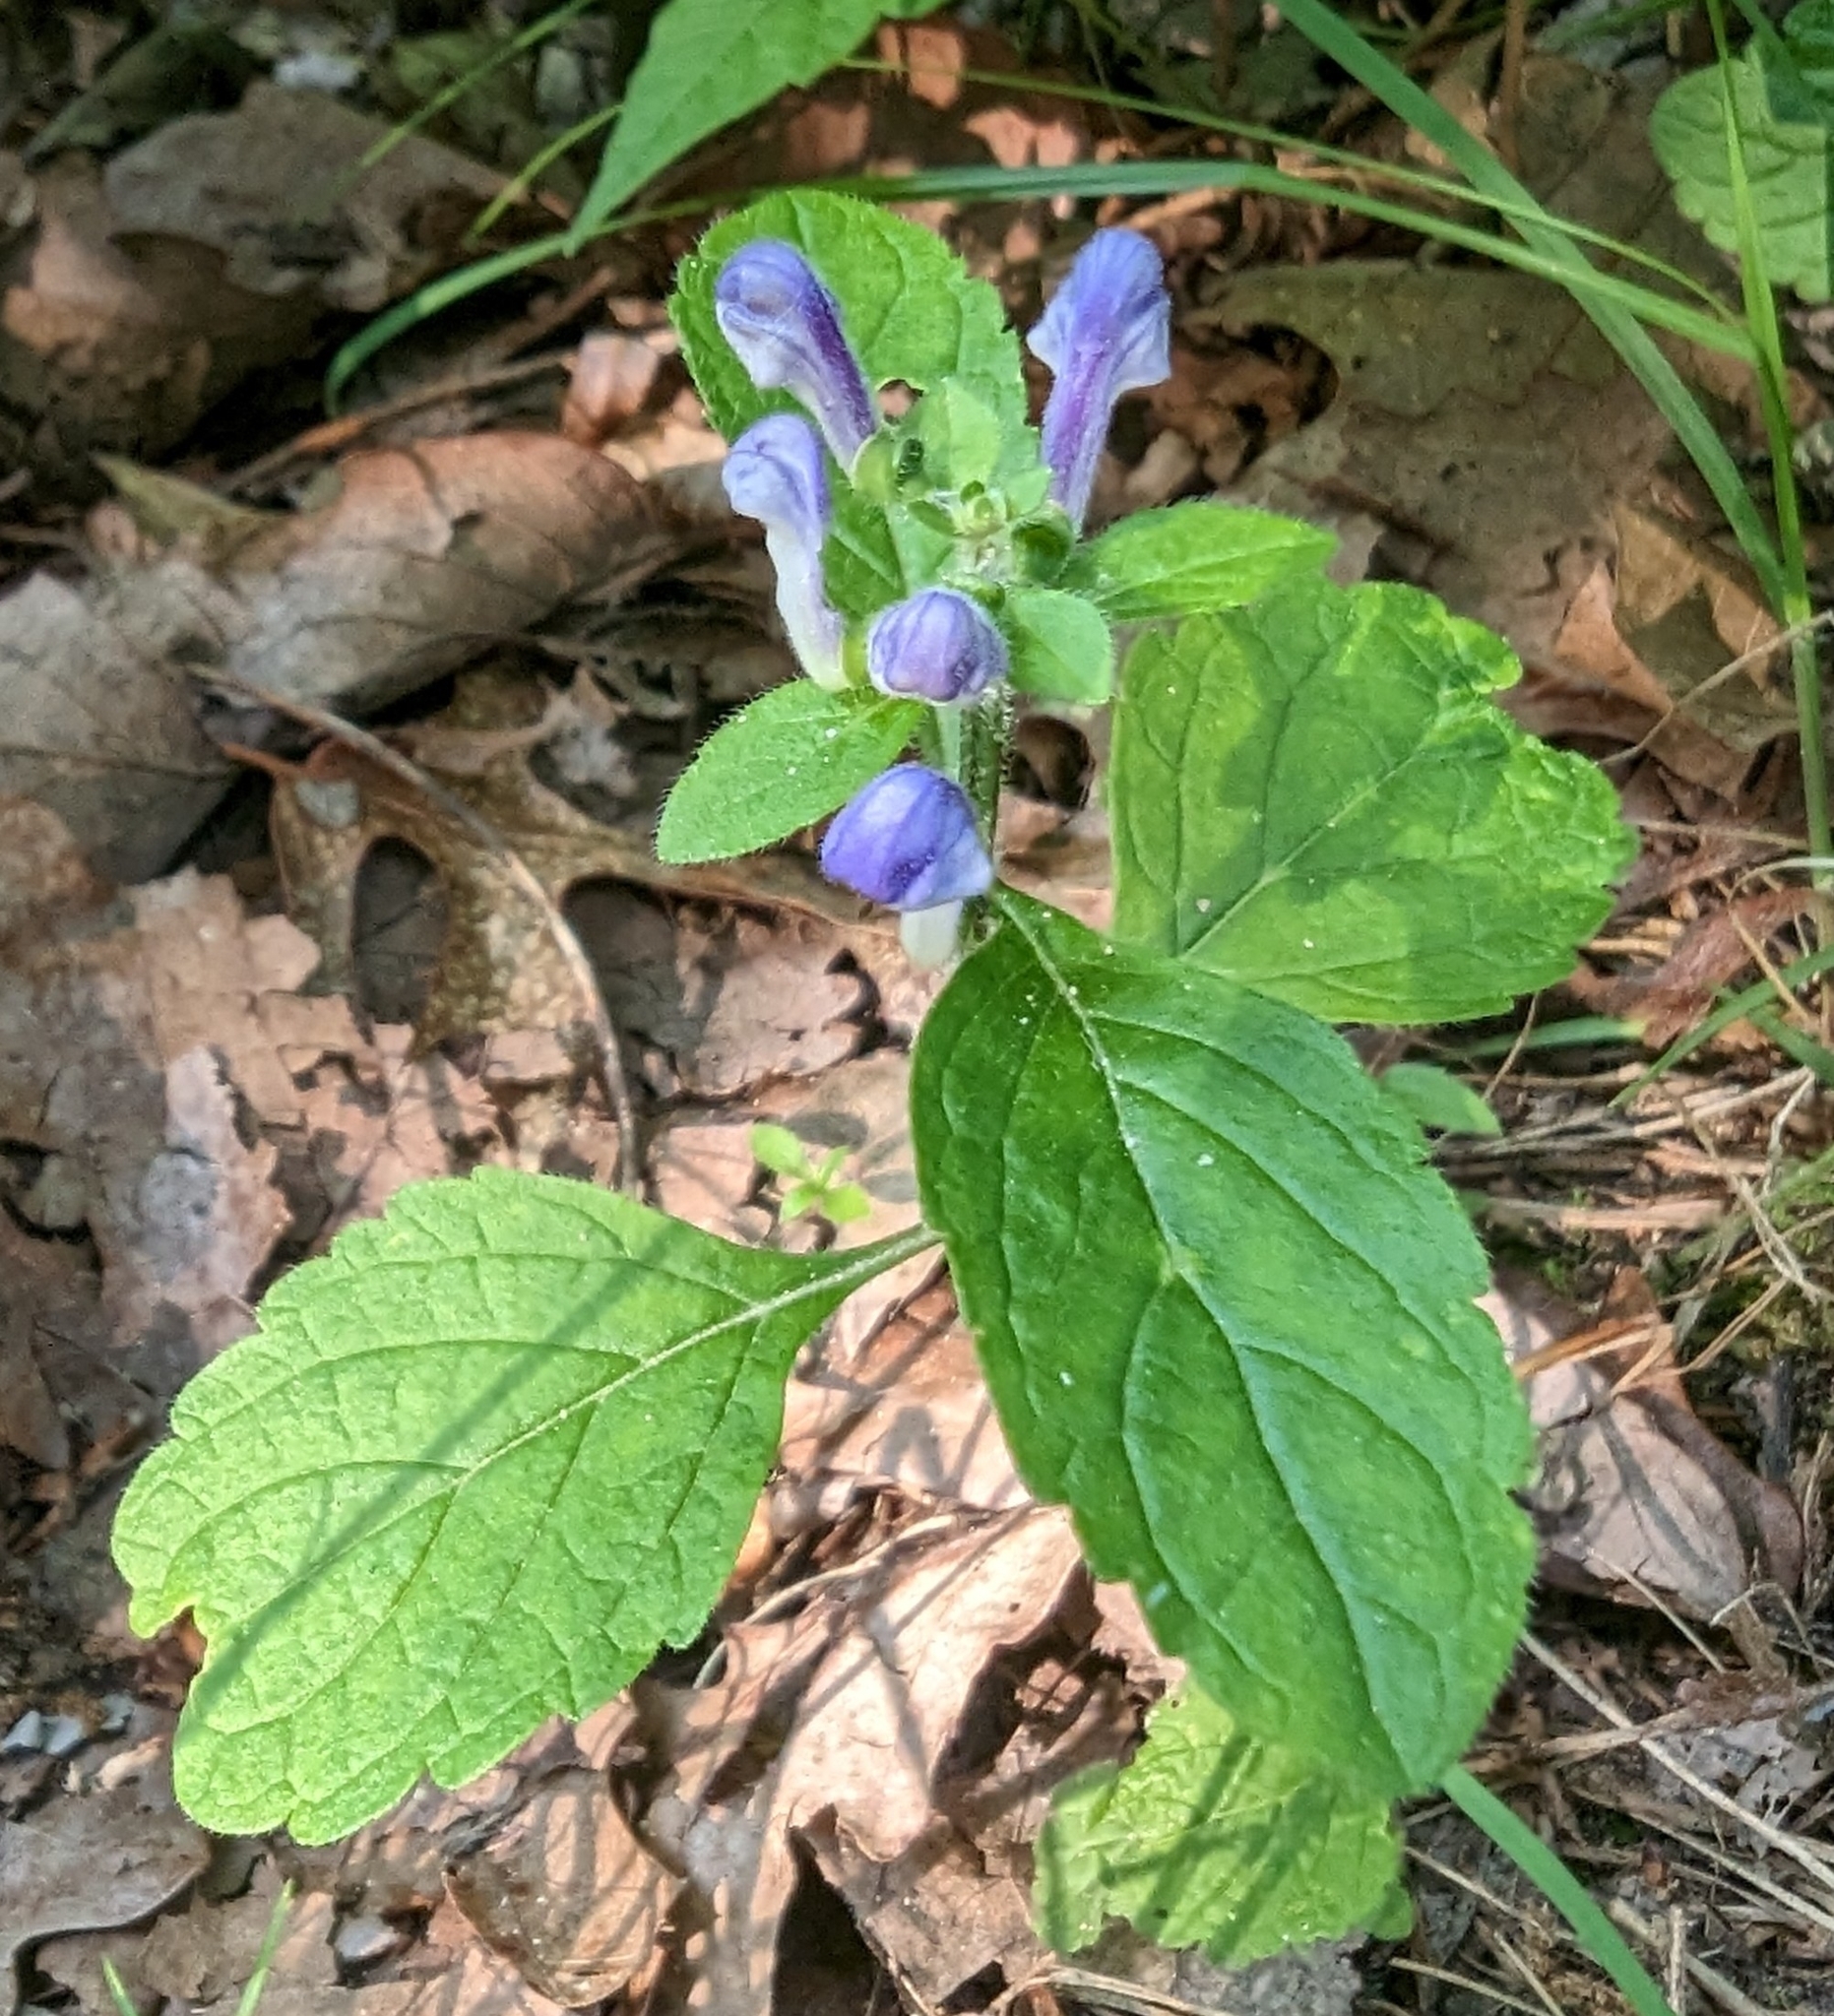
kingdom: Plantae
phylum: Tracheophyta
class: Magnoliopsida
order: Lamiales
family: Lamiaceae
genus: Scutellaria
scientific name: Scutellaria elliptica
